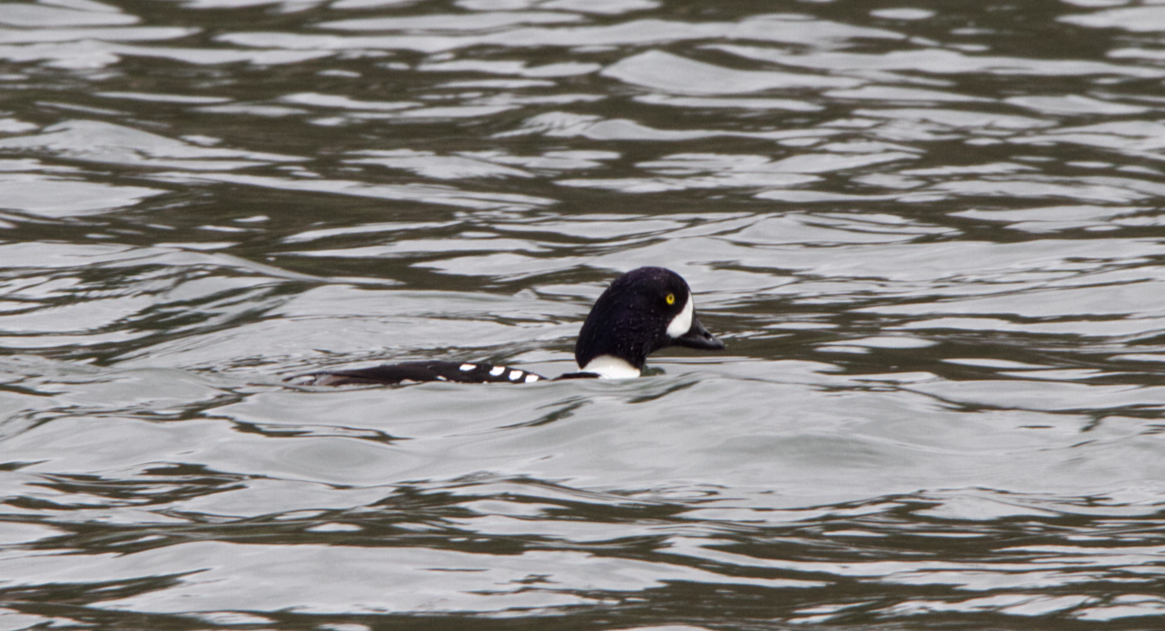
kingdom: Animalia
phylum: Chordata
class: Aves
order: Anseriformes
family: Anatidae
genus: Bucephala
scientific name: Bucephala islandica
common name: Barrow's goldeneye
